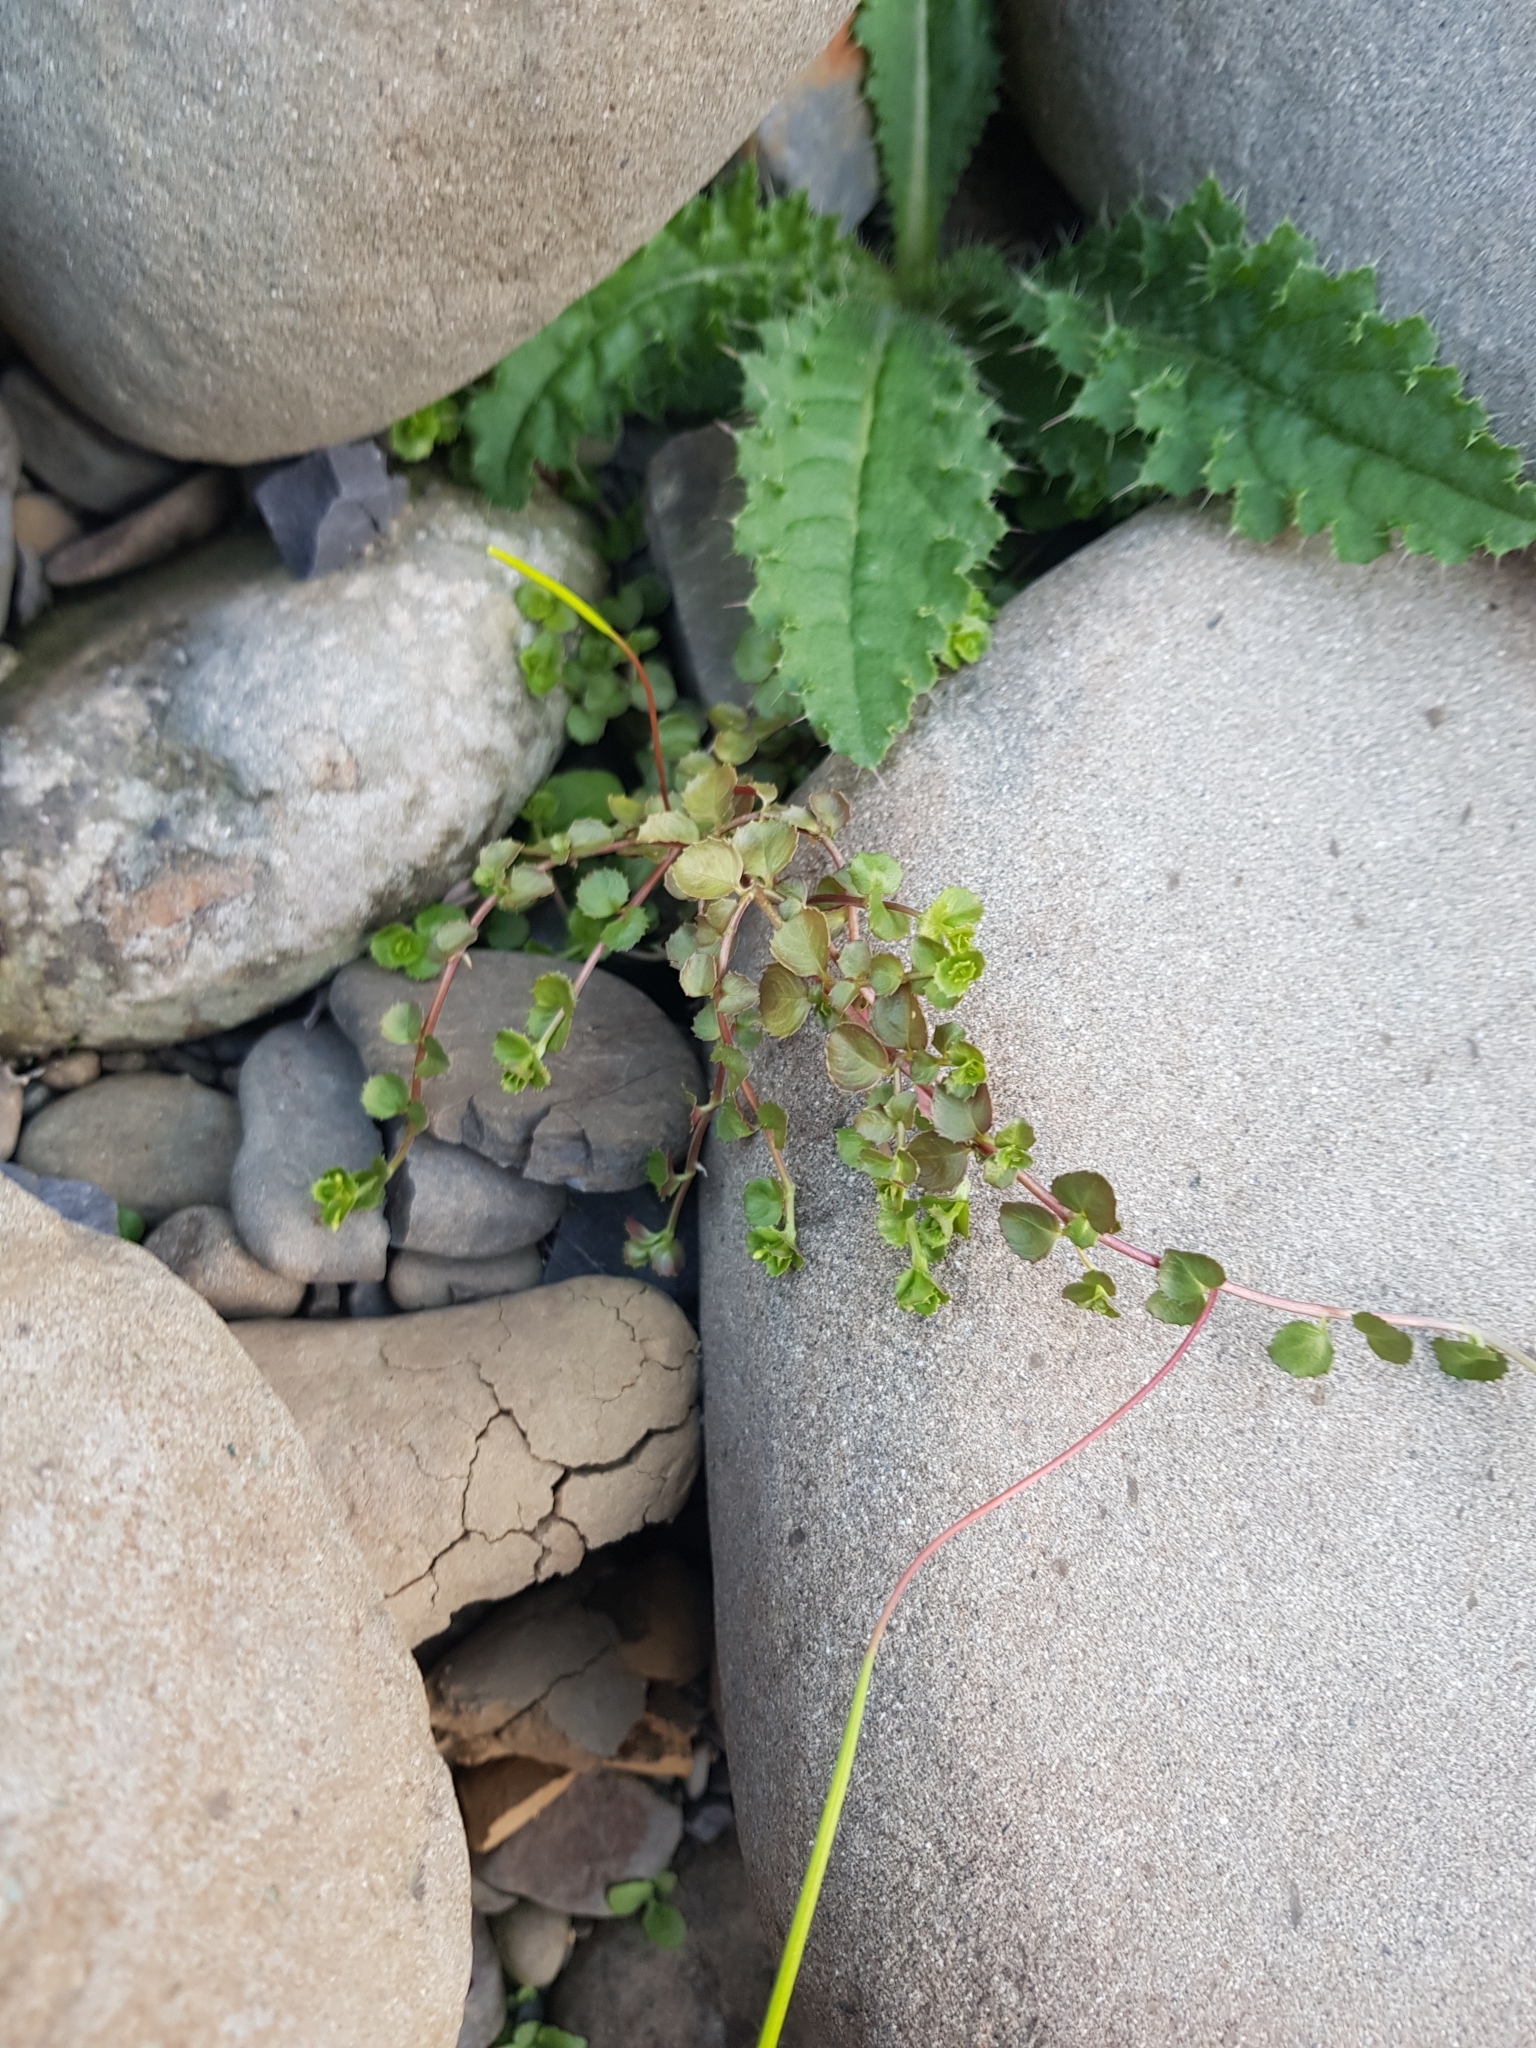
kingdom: Plantae
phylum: Tracheophyta
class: Magnoliopsida
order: Myrtales
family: Onagraceae
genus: Epilobium
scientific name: Epilobium pedunculare
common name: Rockery willowherb
